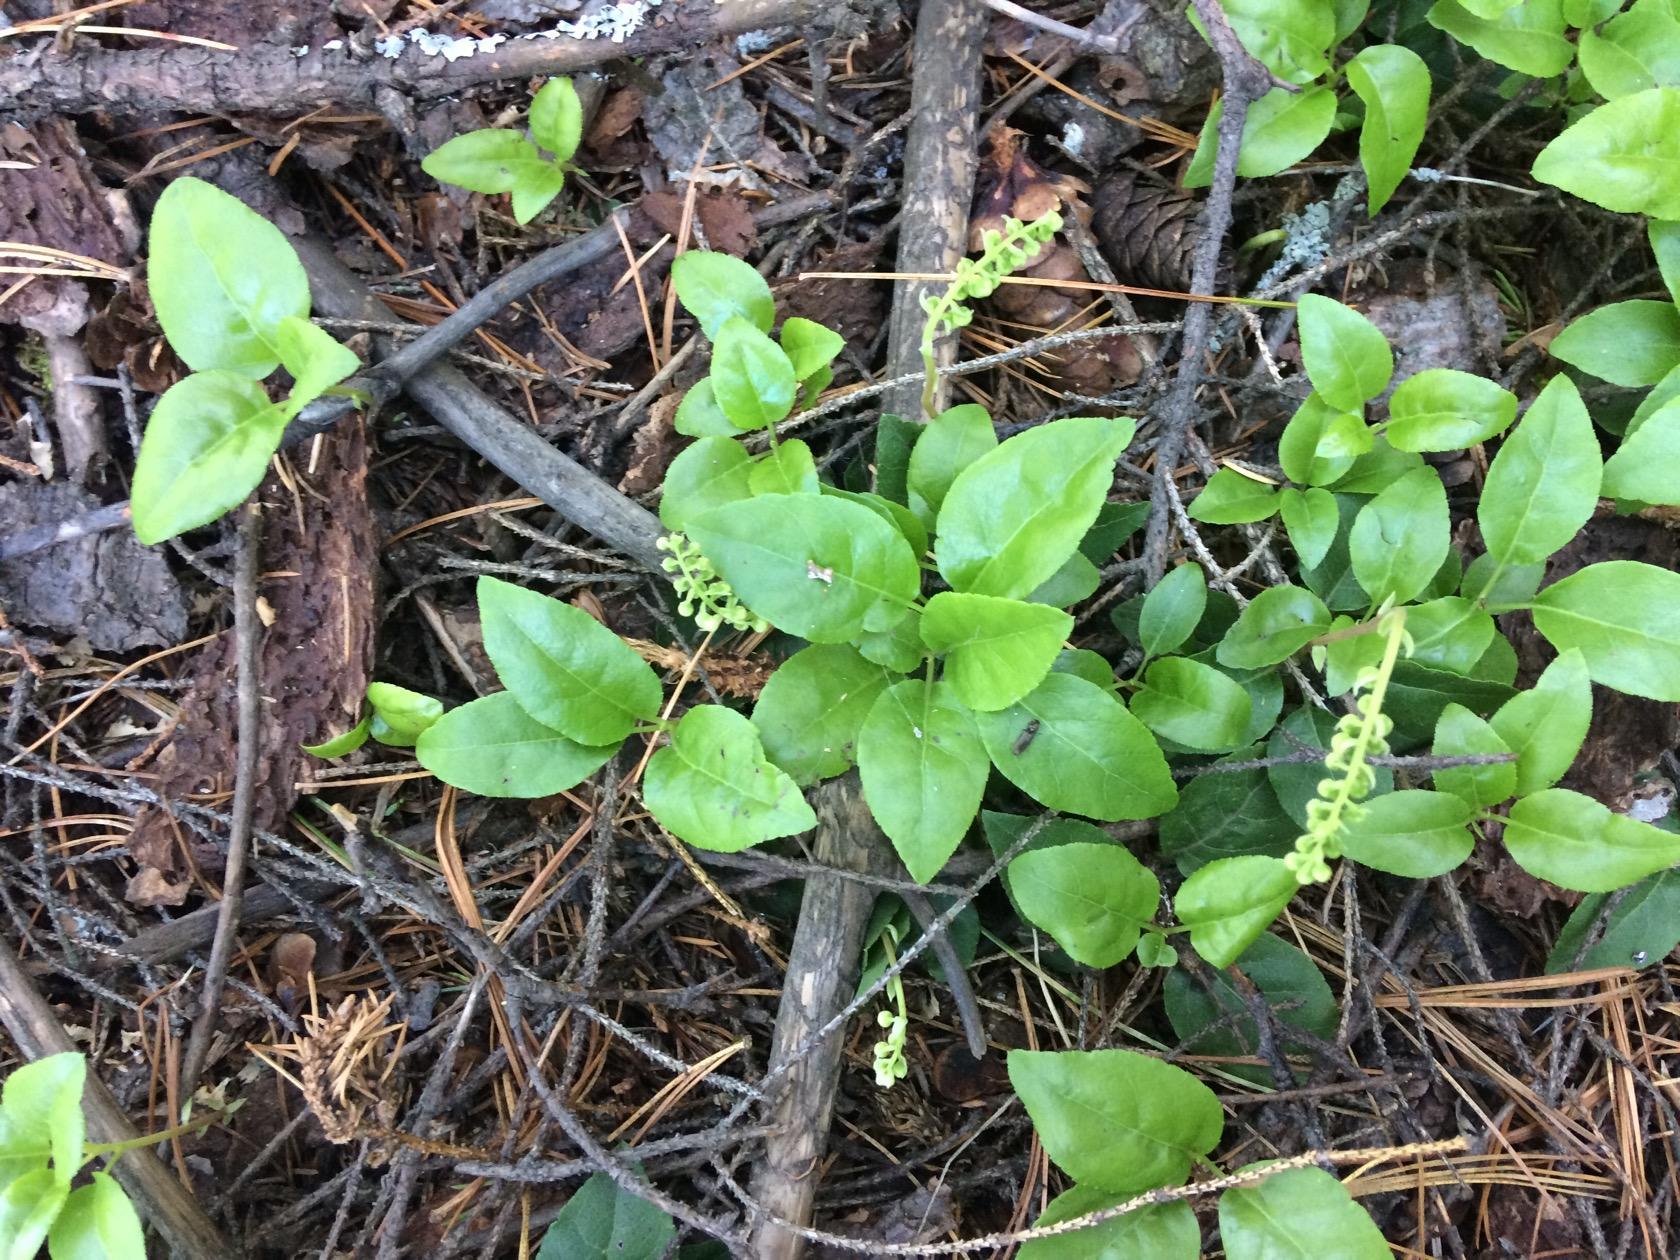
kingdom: Plantae
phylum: Tracheophyta
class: Magnoliopsida
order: Ericales
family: Ericaceae
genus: Orthilia
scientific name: Orthilia secunda
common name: One-sided orthilia
